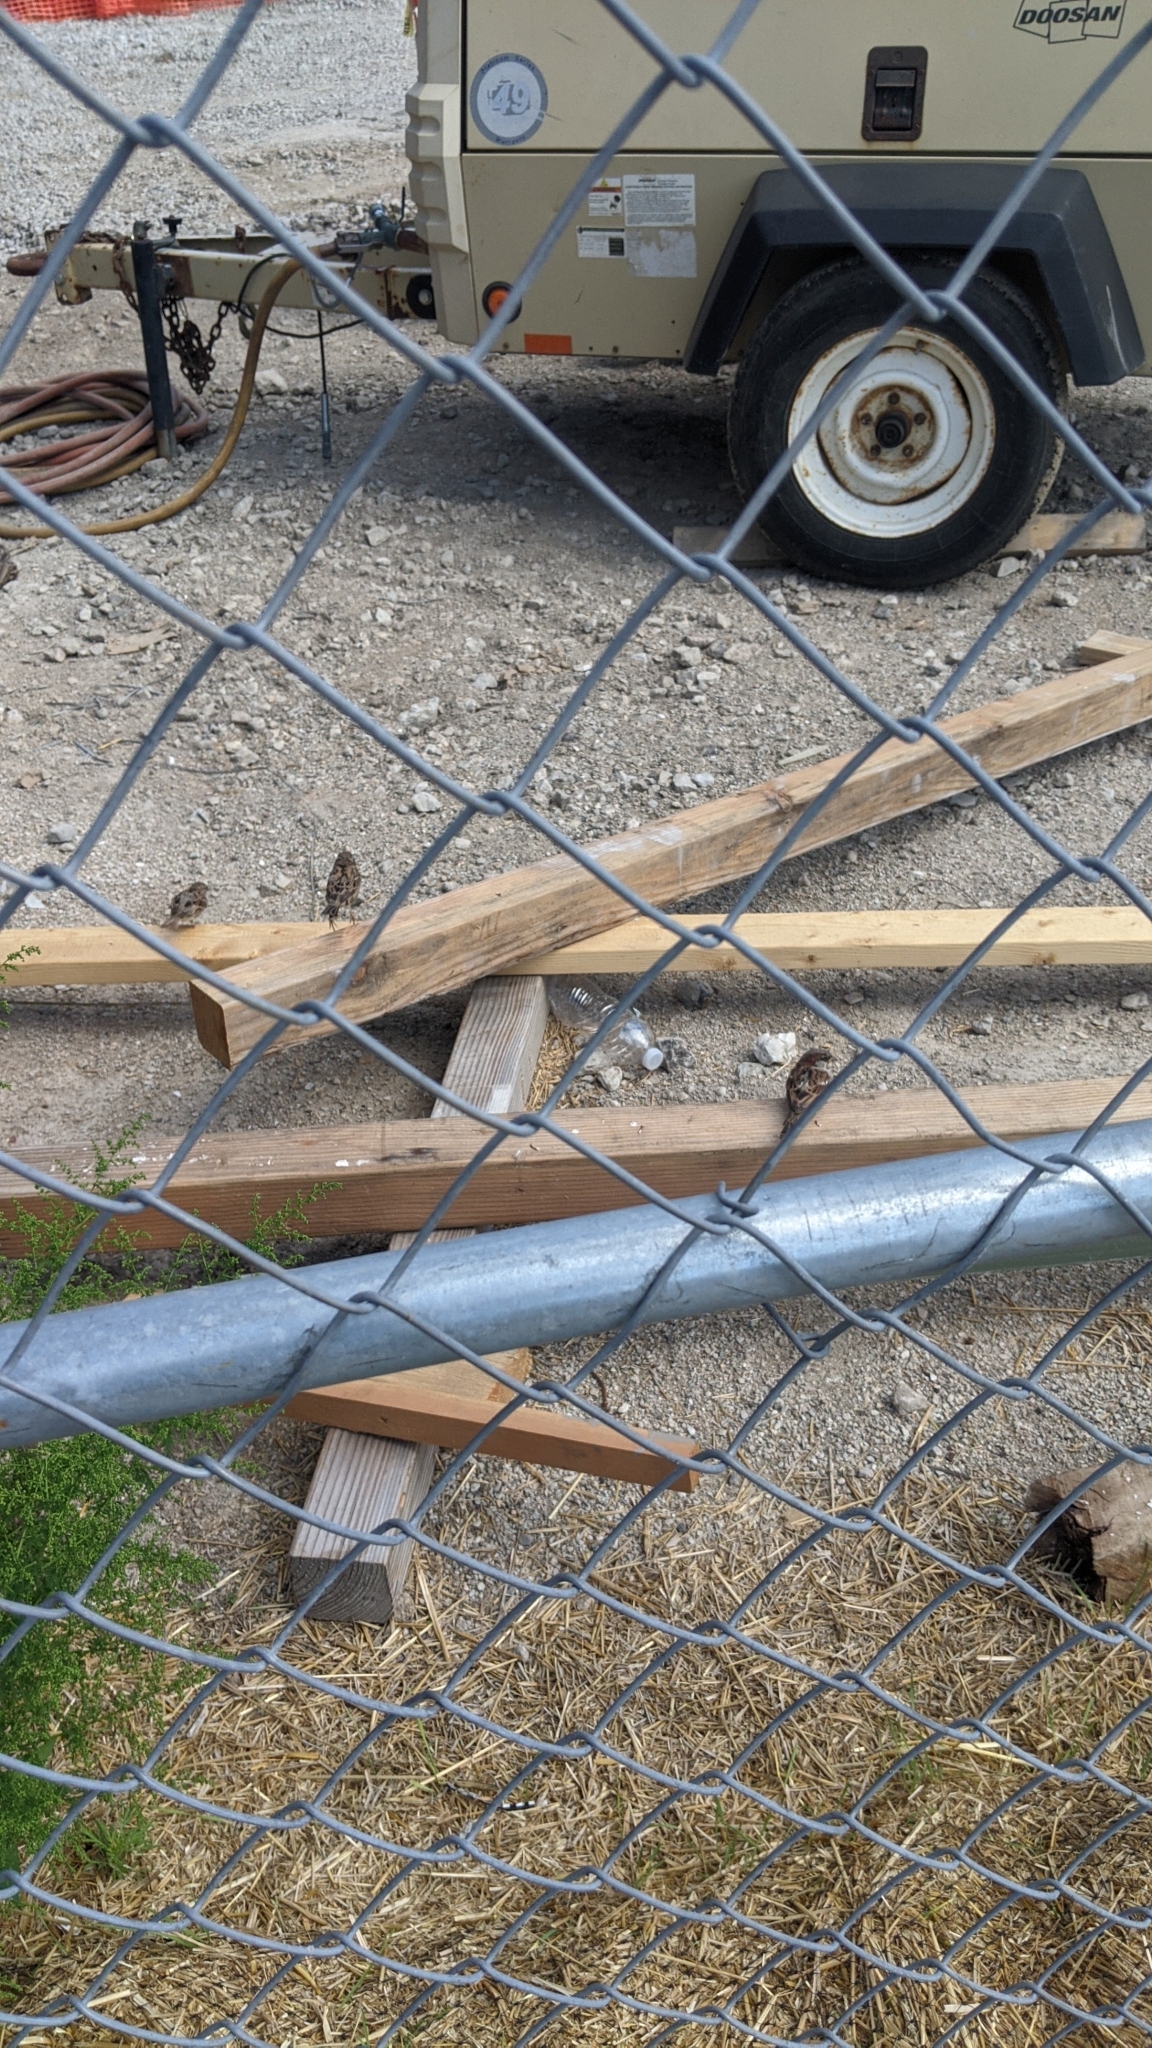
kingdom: Animalia
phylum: Chordata
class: Aves
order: Passeriformes
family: Passeridae
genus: Passer
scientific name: Passer domesticus
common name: House sparrow
